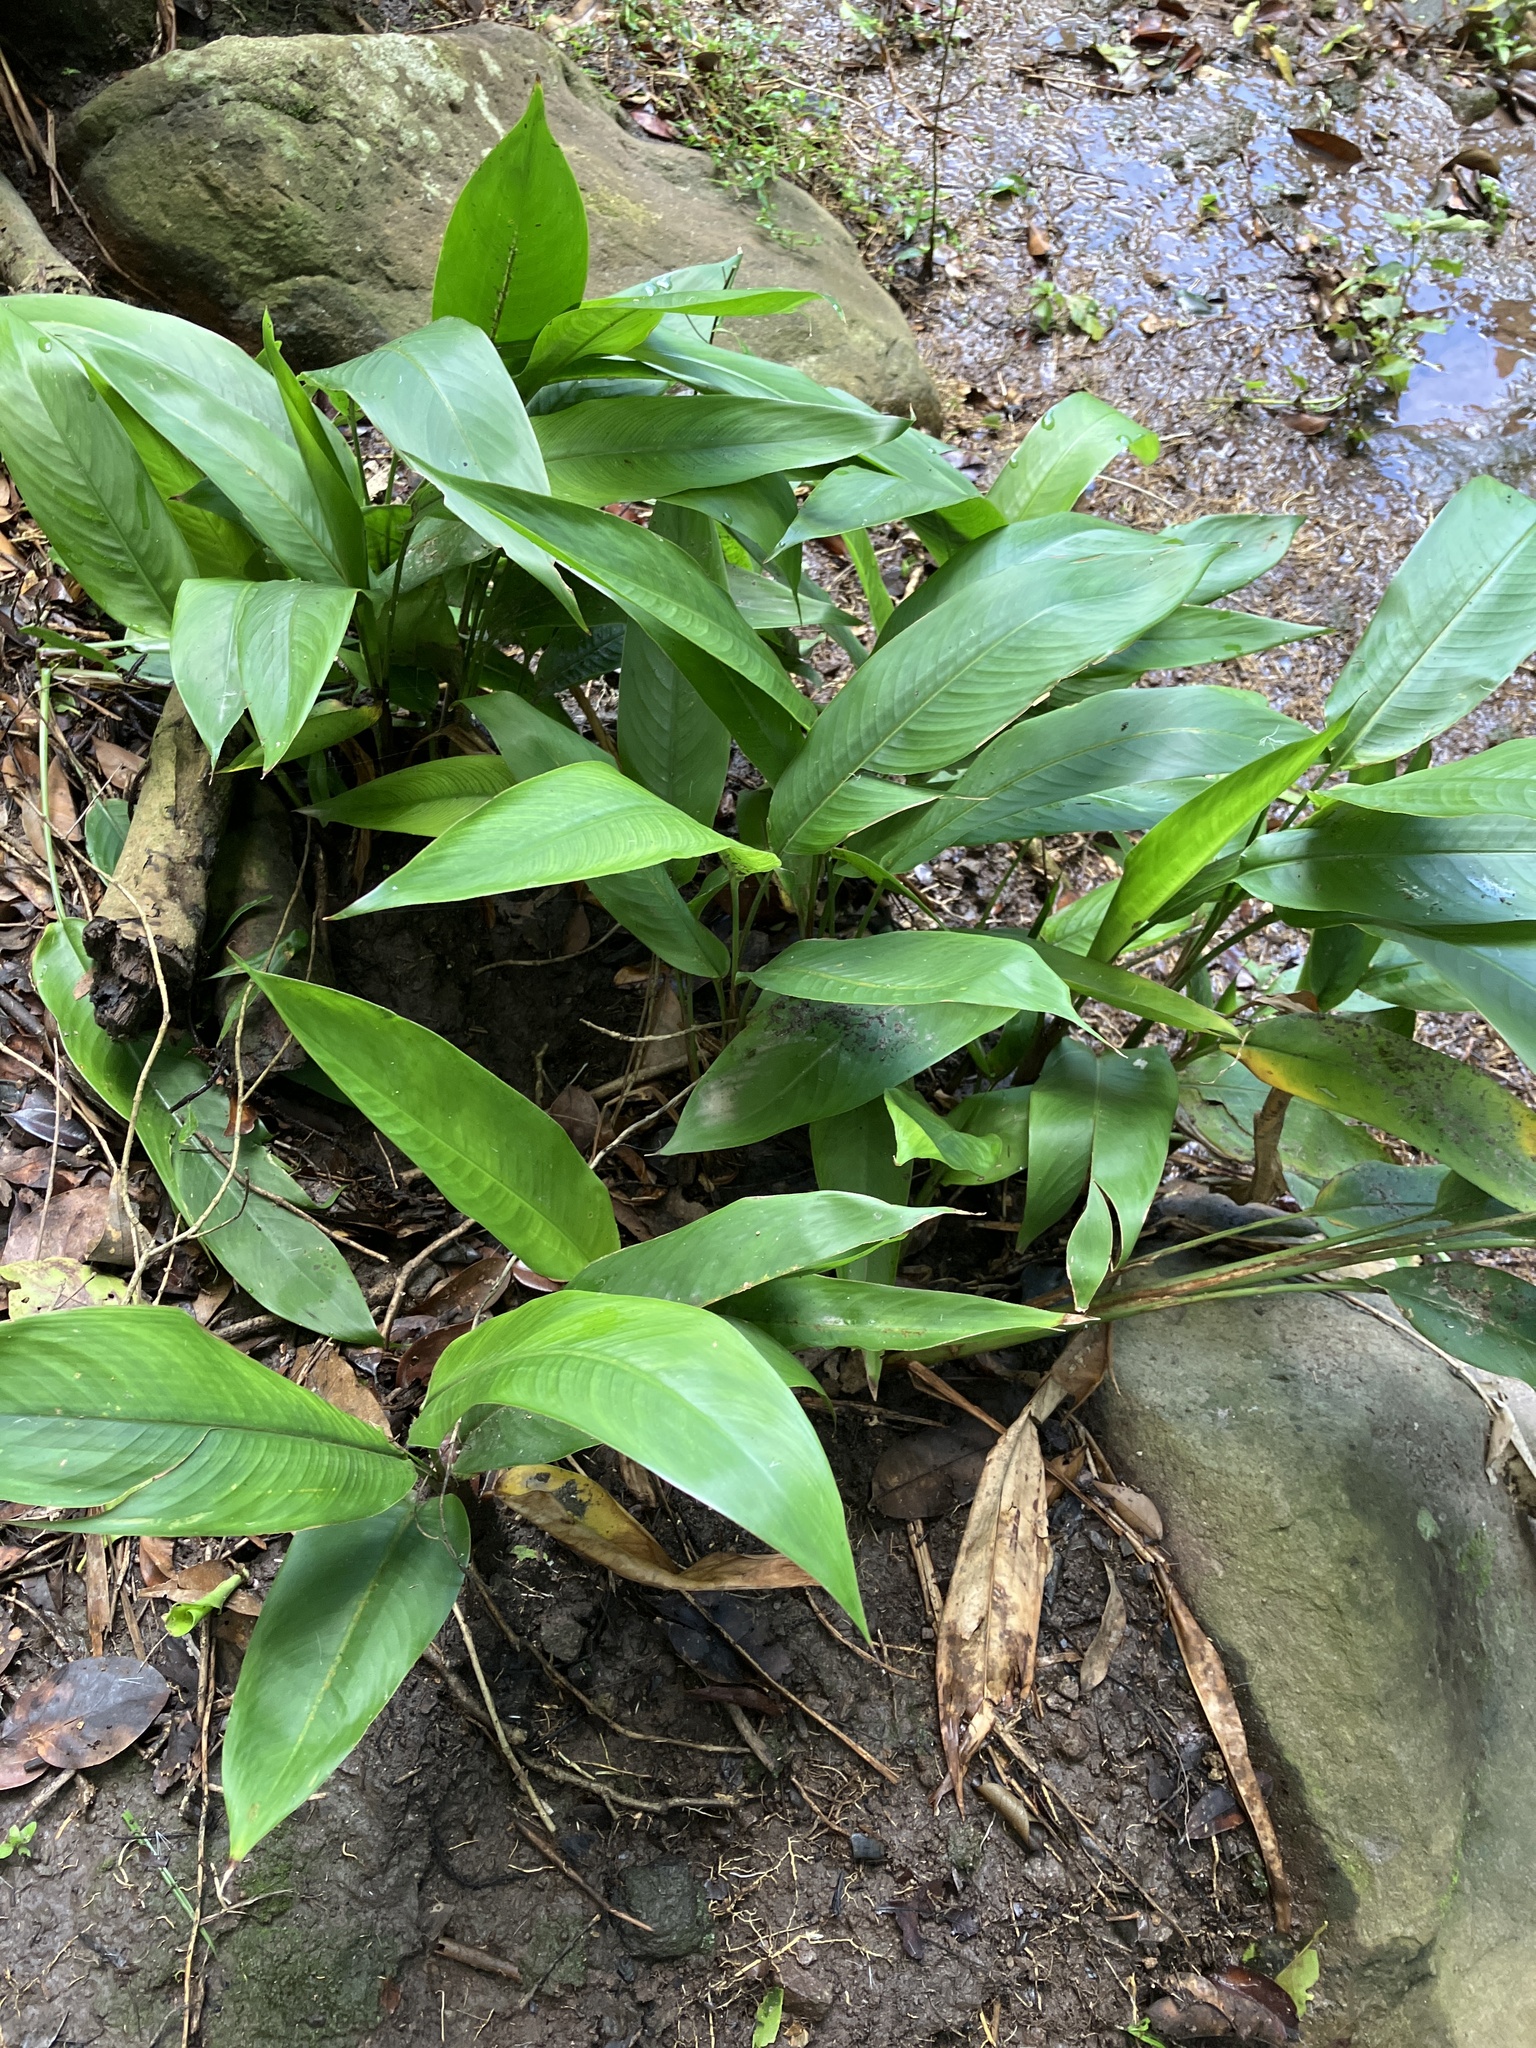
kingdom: Plantae
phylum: Tracheophyta
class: Liliopsida
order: Zingiberales
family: Heliconiaceae
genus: Heliconia
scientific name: Heliconia psittacorum
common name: Parrot's-flower
